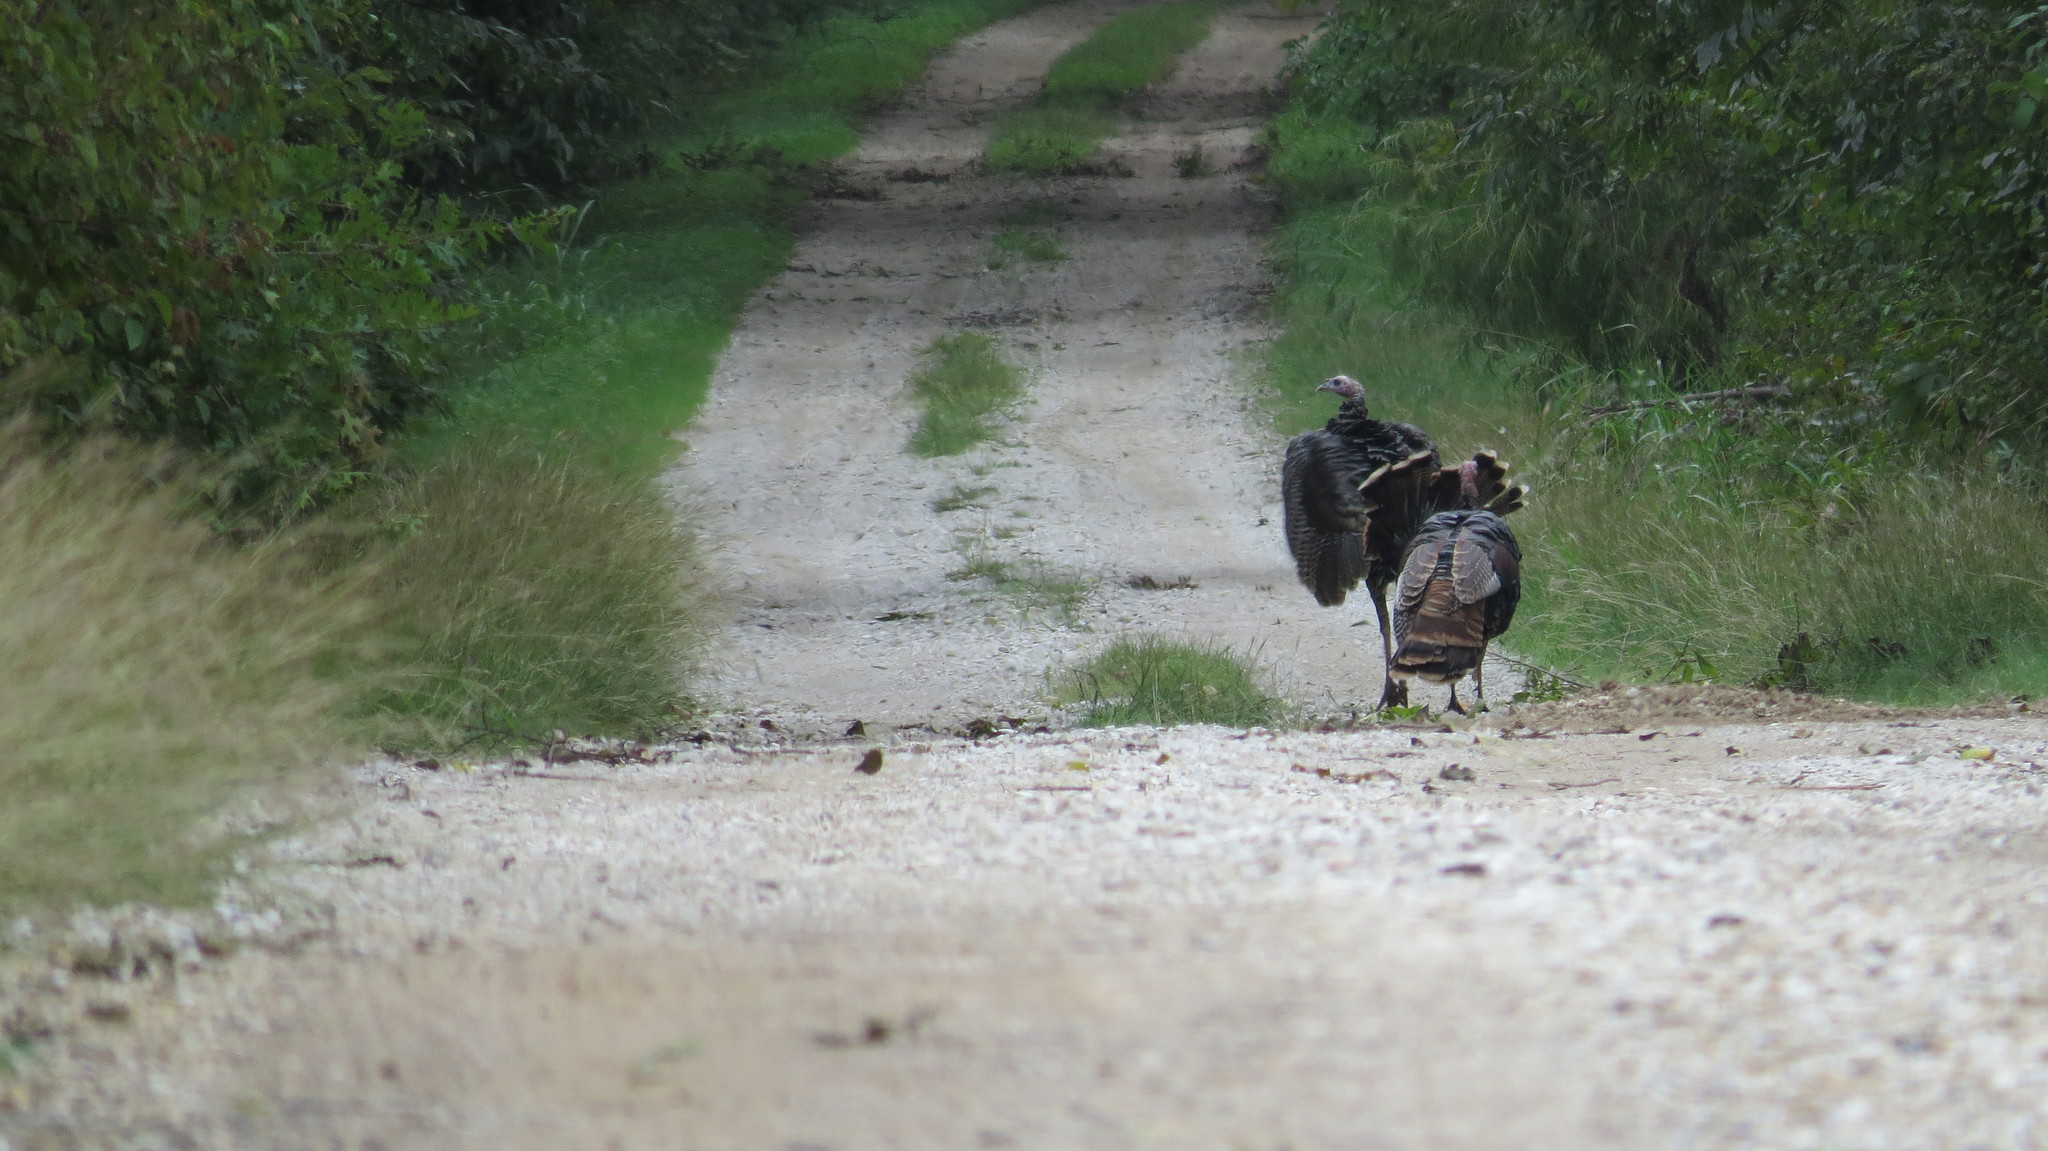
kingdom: Animalia
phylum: Chordata
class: Aves
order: Galliformes
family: Phasianidae
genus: Meleagris
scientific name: Meleagris gallopavo
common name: Wild turkey
